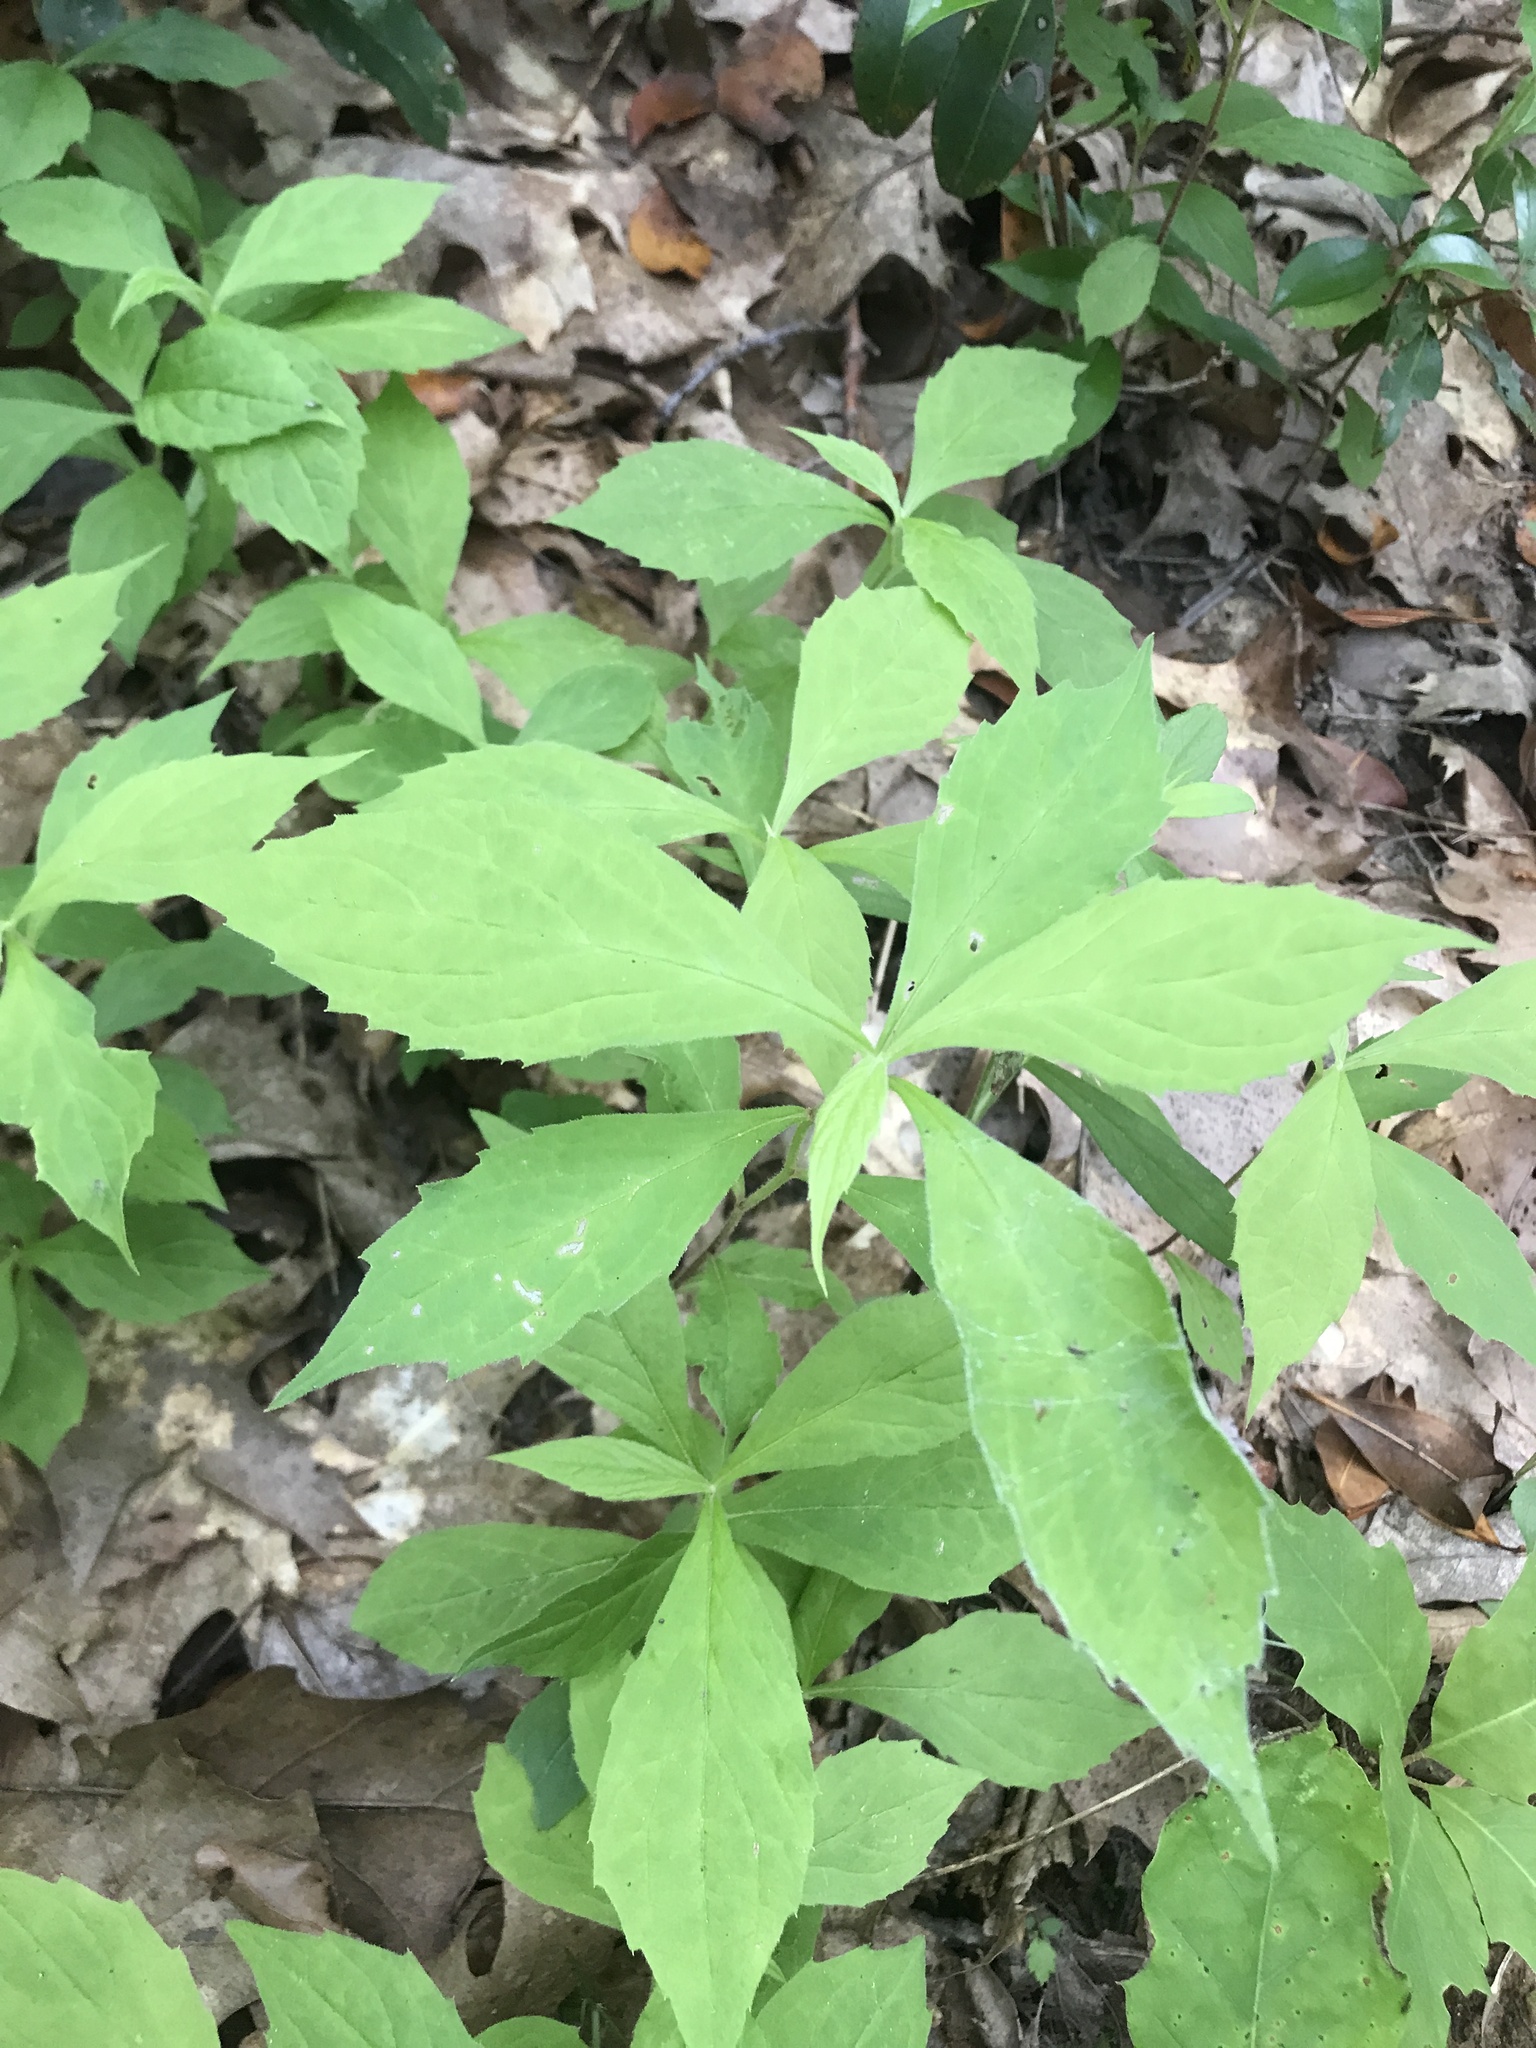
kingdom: Plantae
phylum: Tracheophyta
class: Magnoliopsida
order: Asterales
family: Asteraceae
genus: Oclemena
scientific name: Oclemena acuminata
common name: Mountain aster
